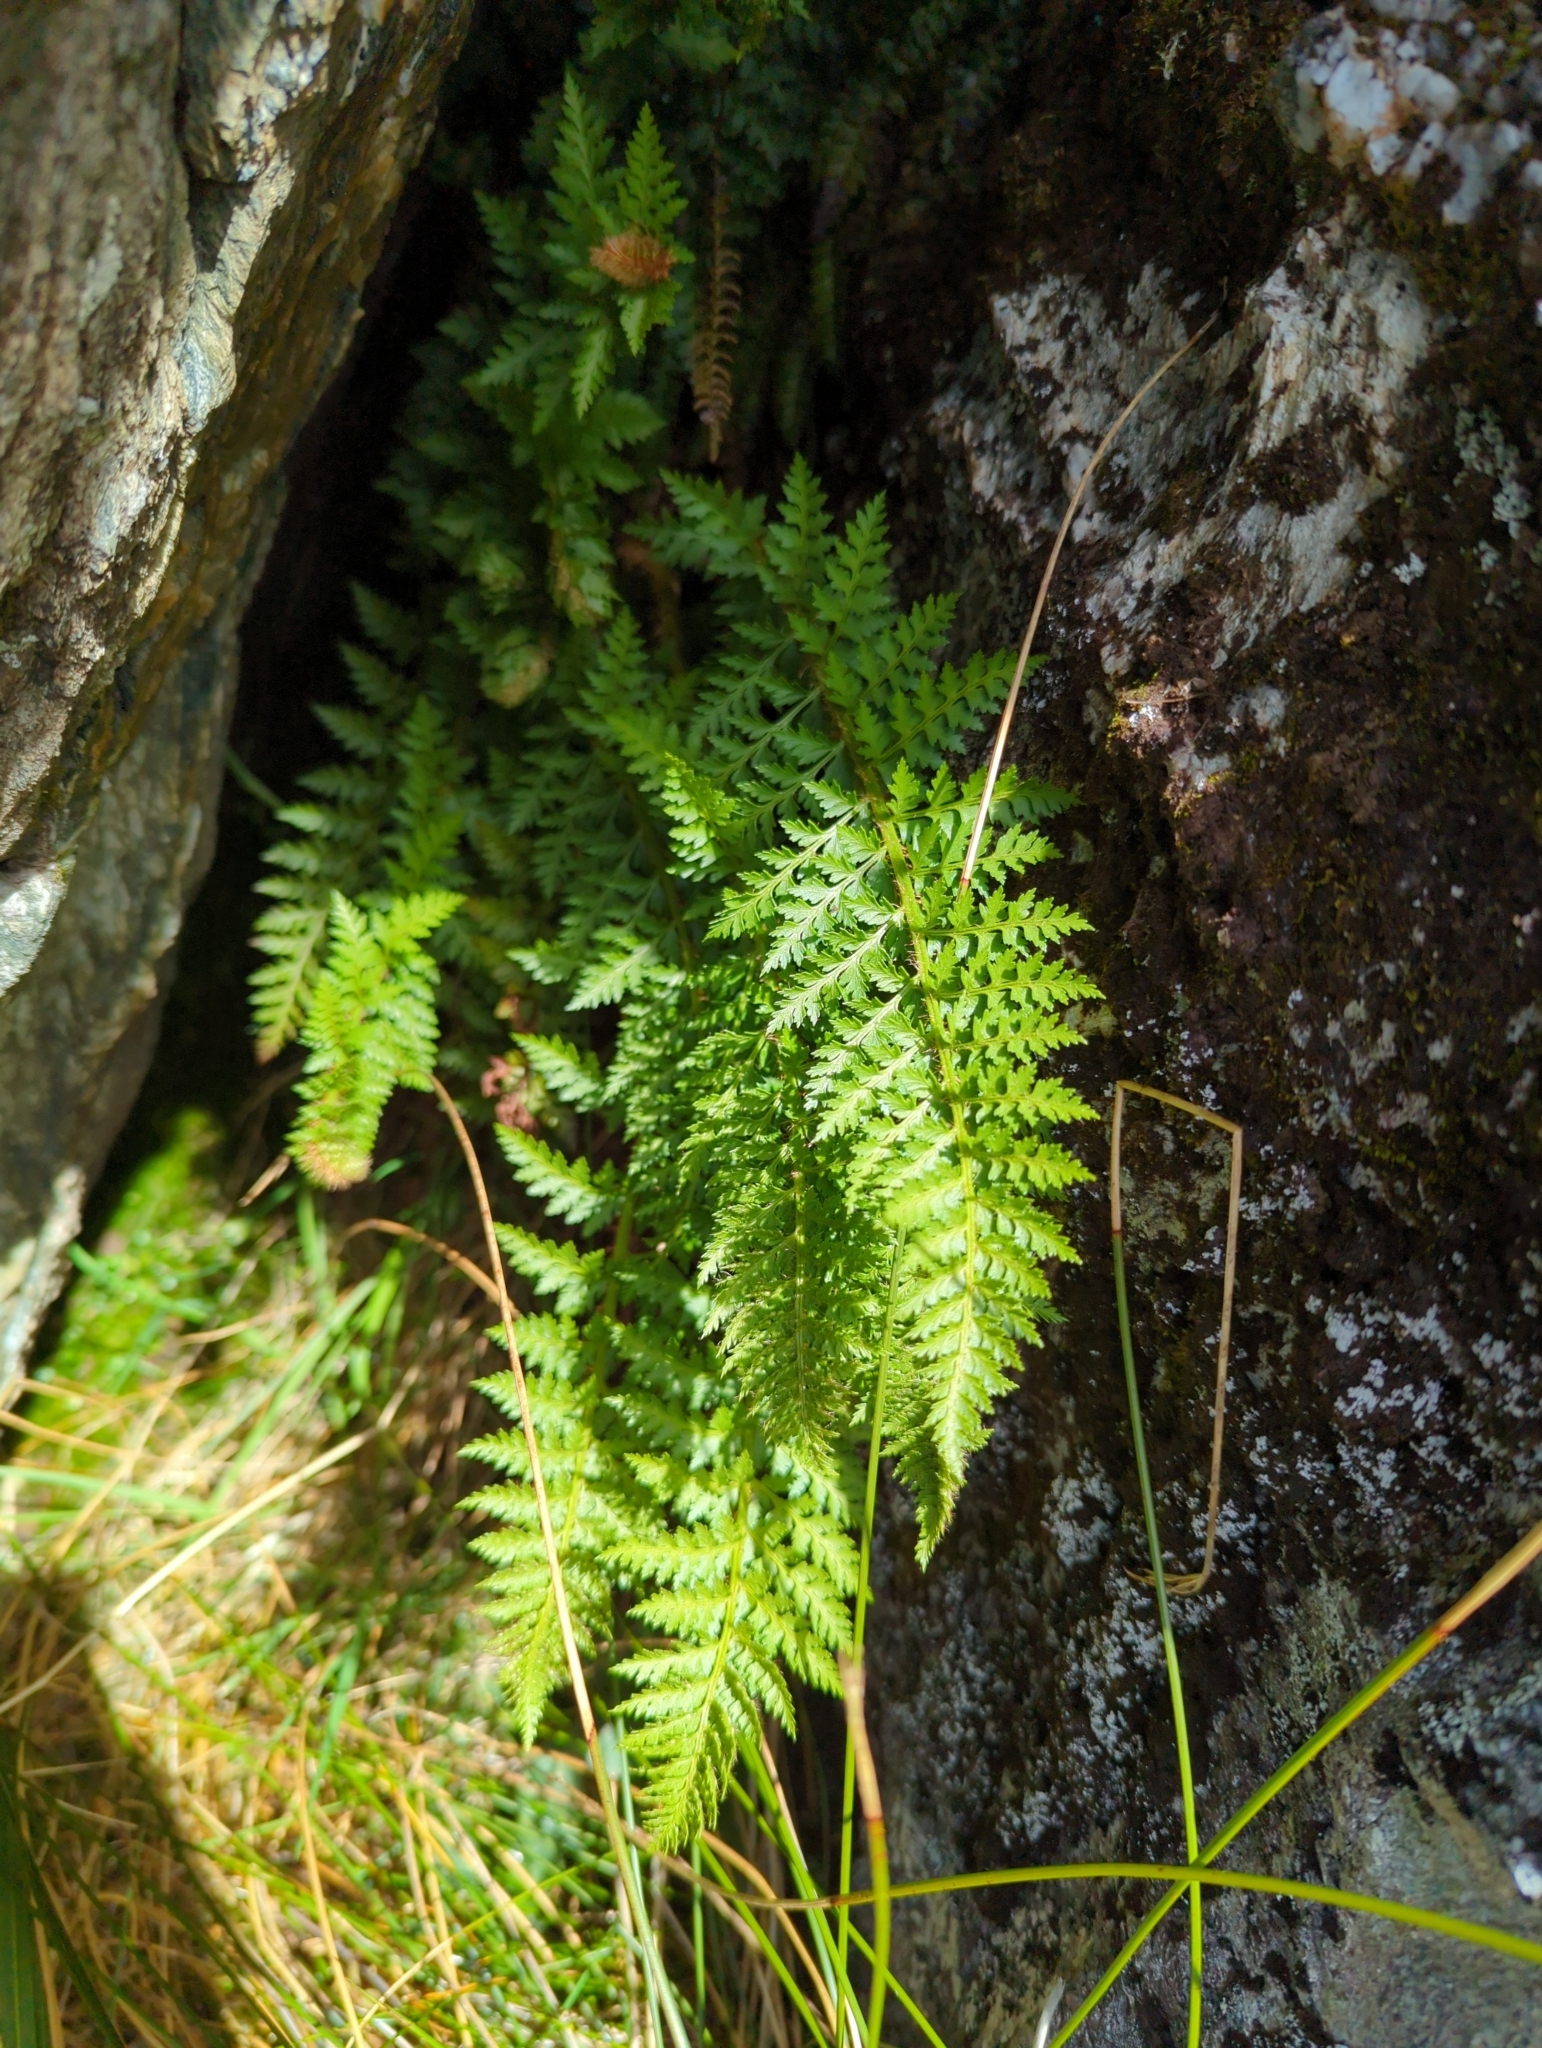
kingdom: Plantae
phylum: Tracheophyta
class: Polypodiopsida
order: Polypodiales
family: Dryopteridaceae
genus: Polystichum
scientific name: Polystichum cystostegia
